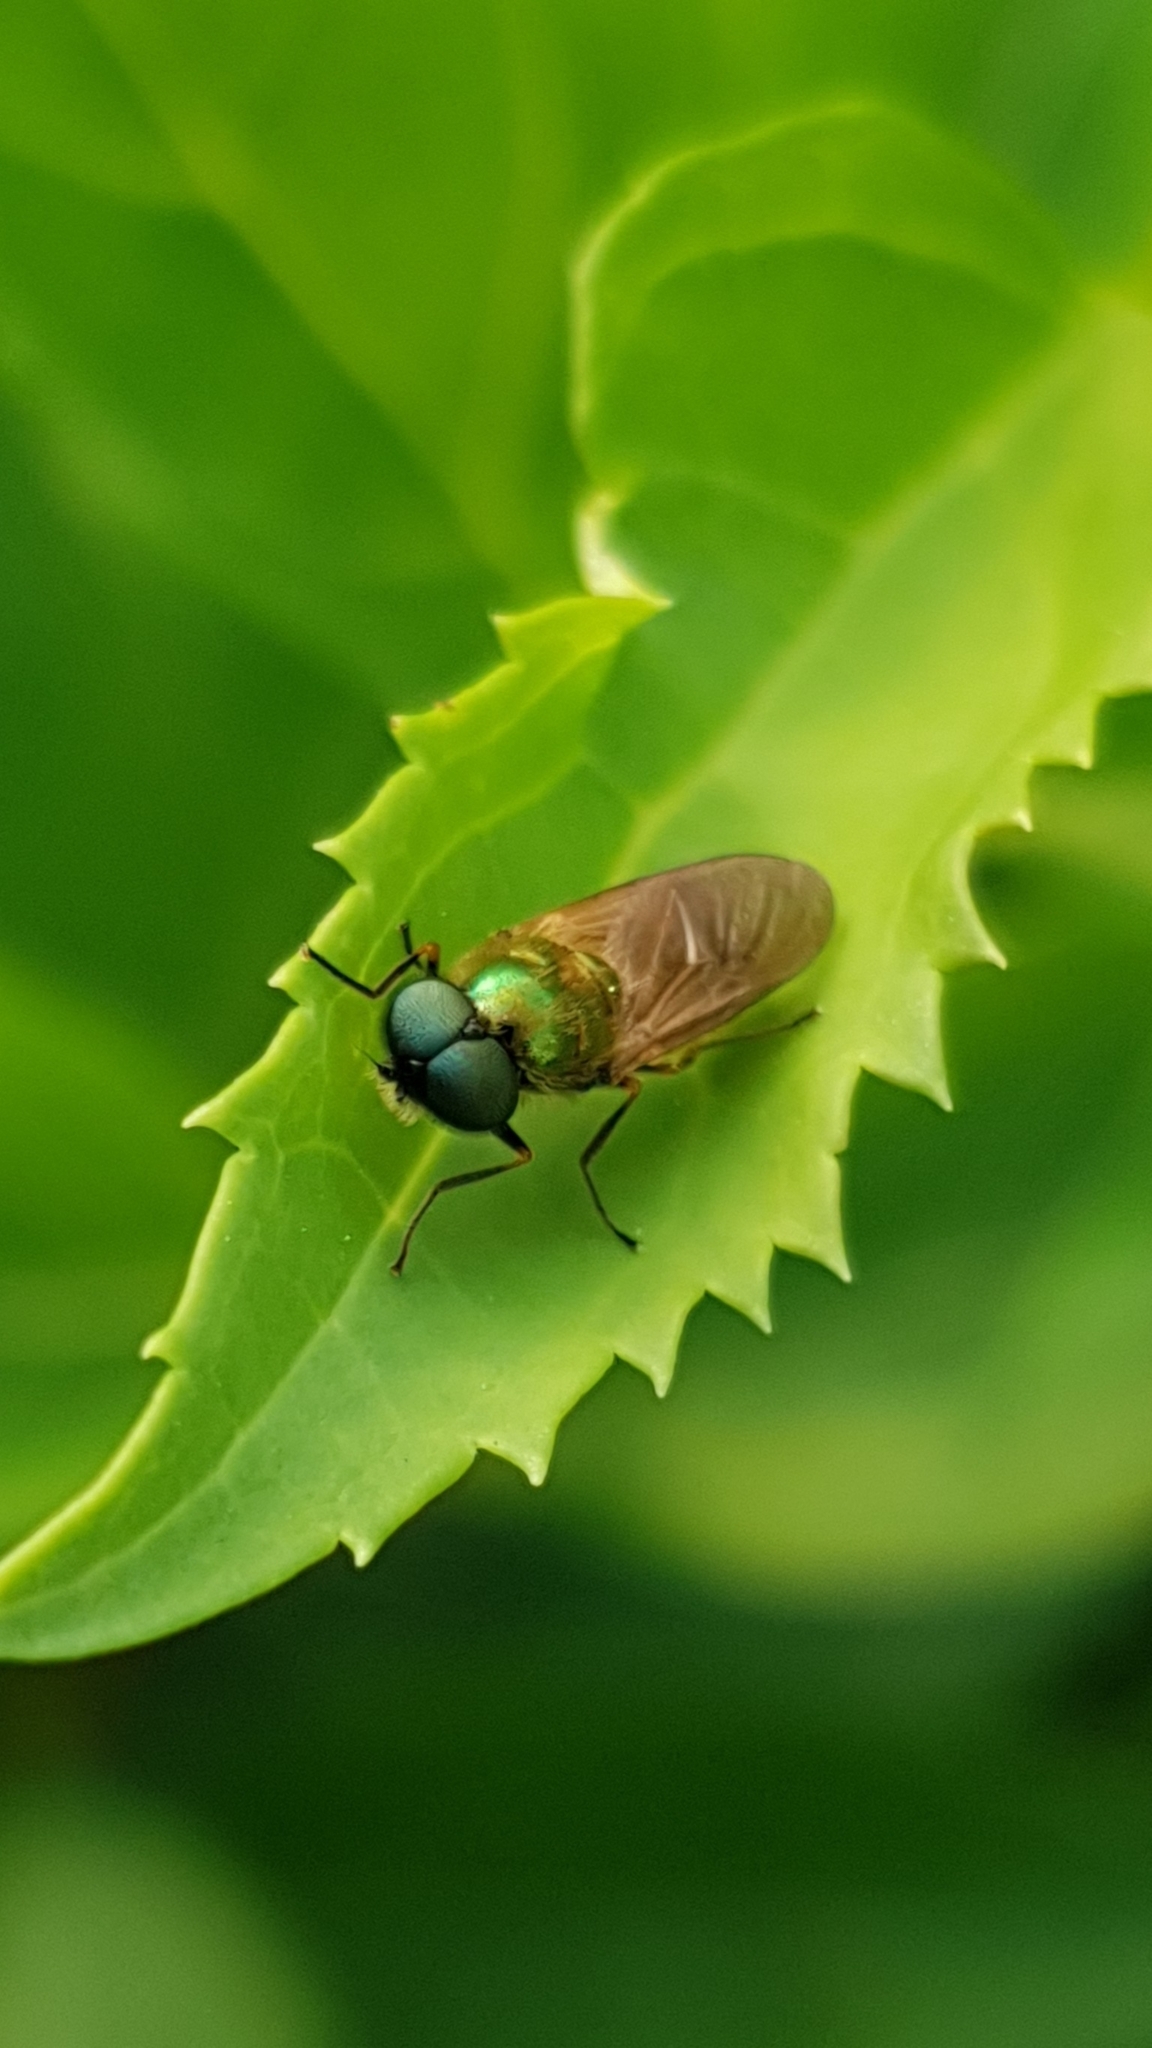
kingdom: Animalia
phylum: Arthropoda
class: Insecta
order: Diptera
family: Stratiomyidae
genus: Chloromyia
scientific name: Chloromyia formosa
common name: Soldier fly
